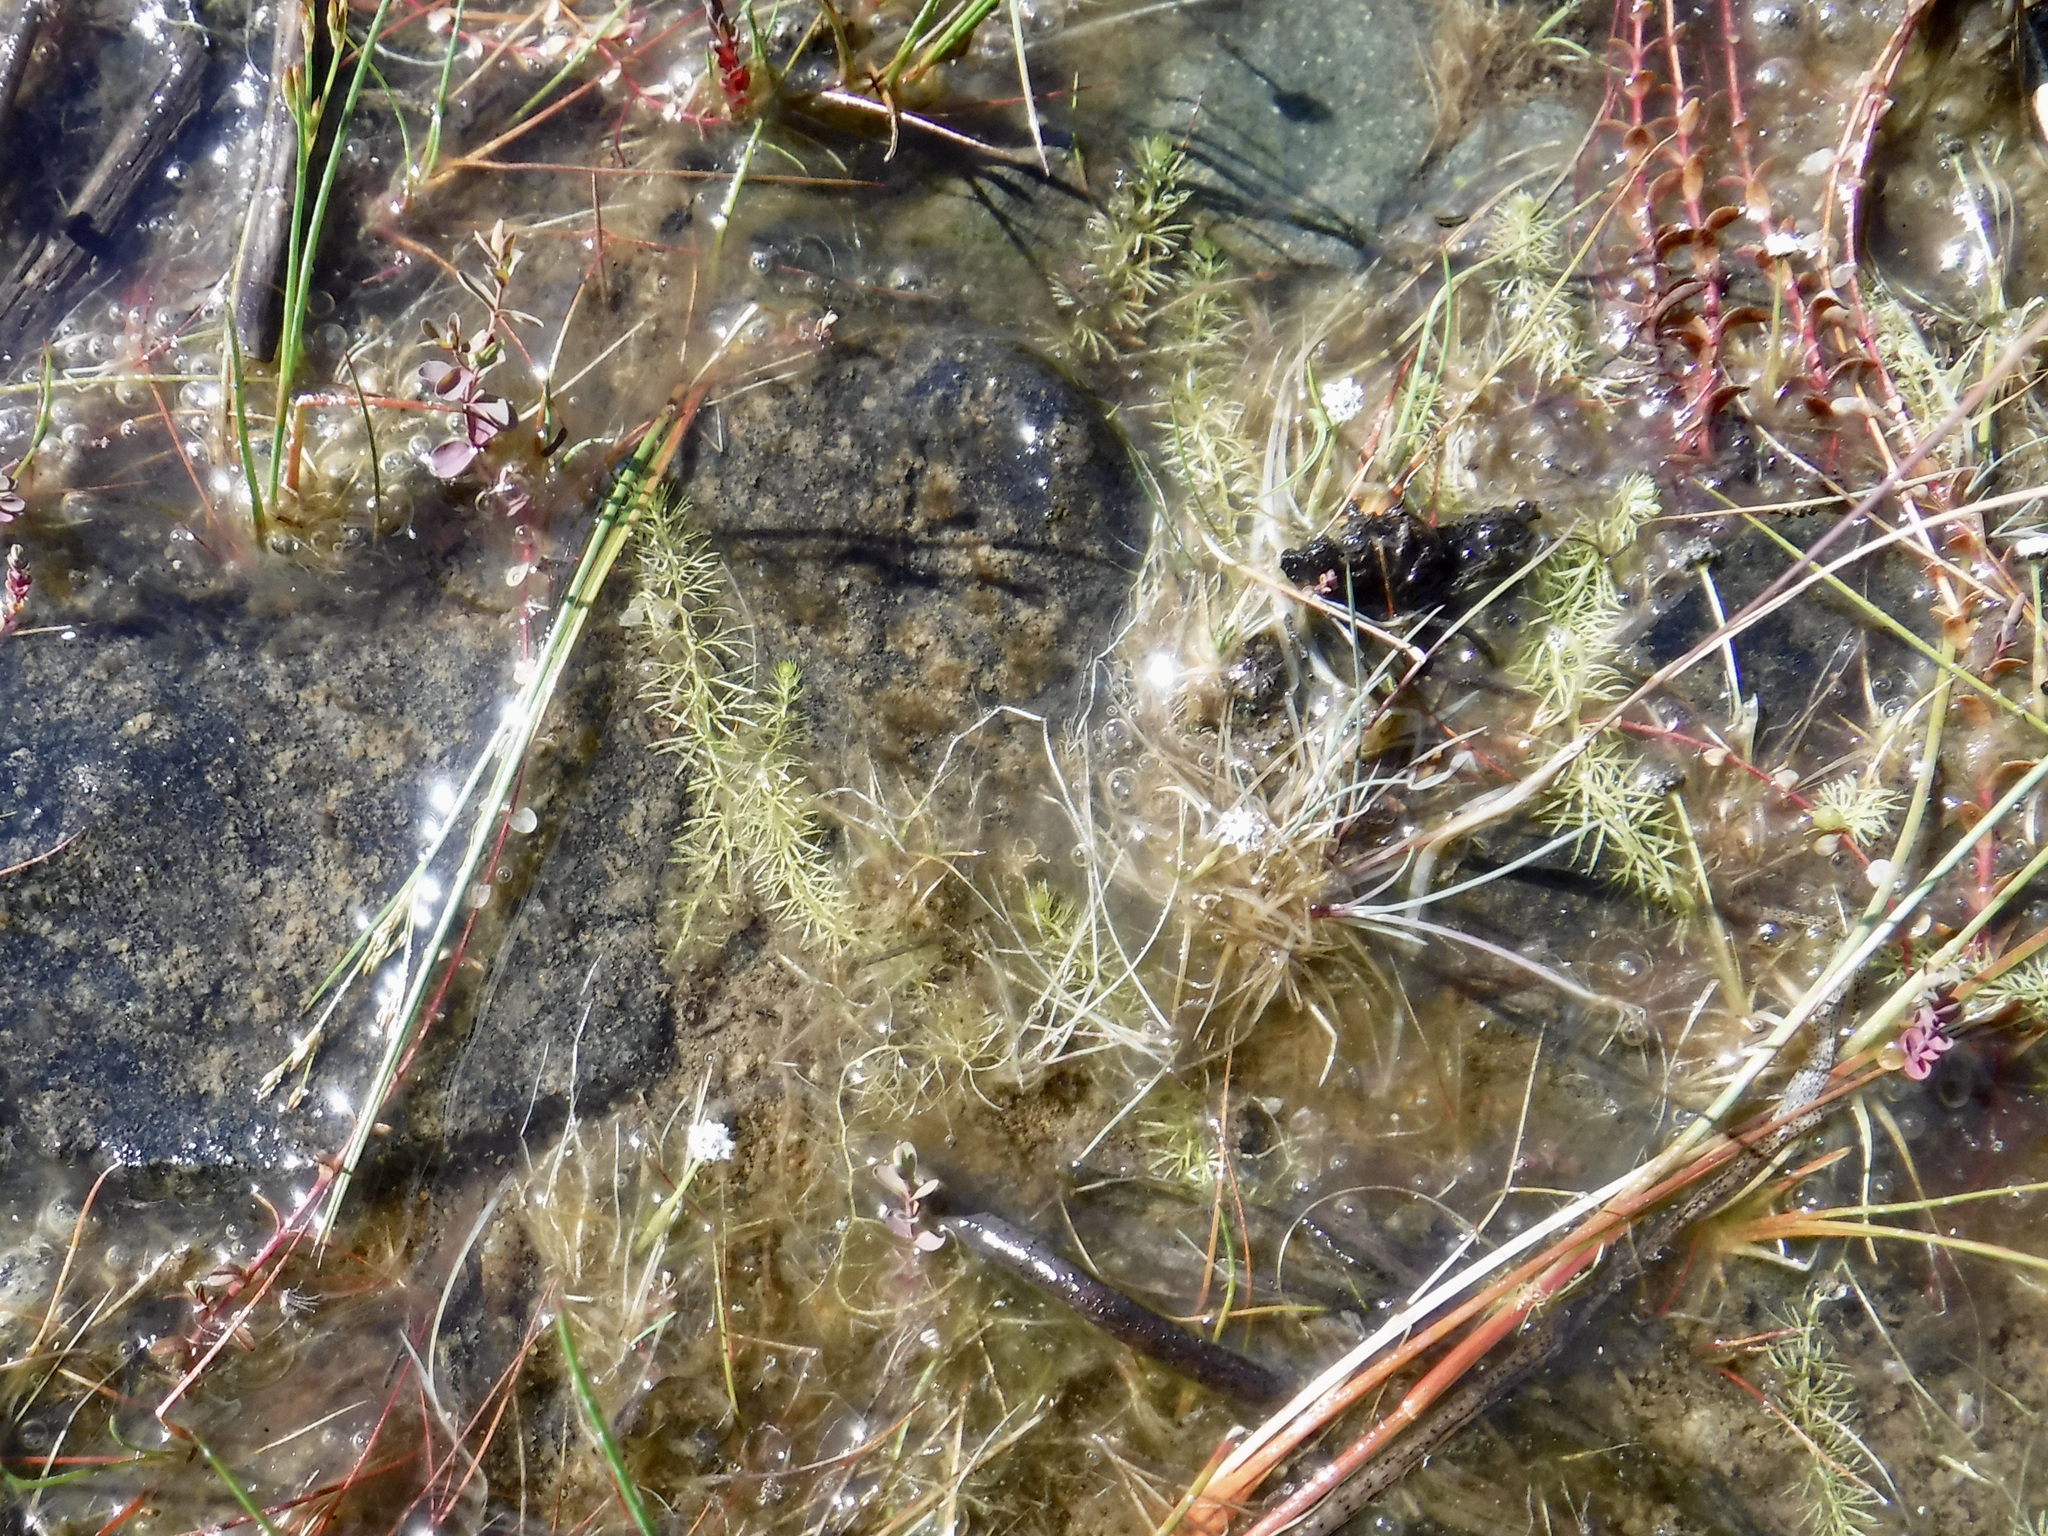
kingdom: Plantae
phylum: Tracheophyta
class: Magnoliopsida
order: Lamiales
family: Lentibulariaceae
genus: Utricularia
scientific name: Utricularia intermedia
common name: Intermediate bladderwort
